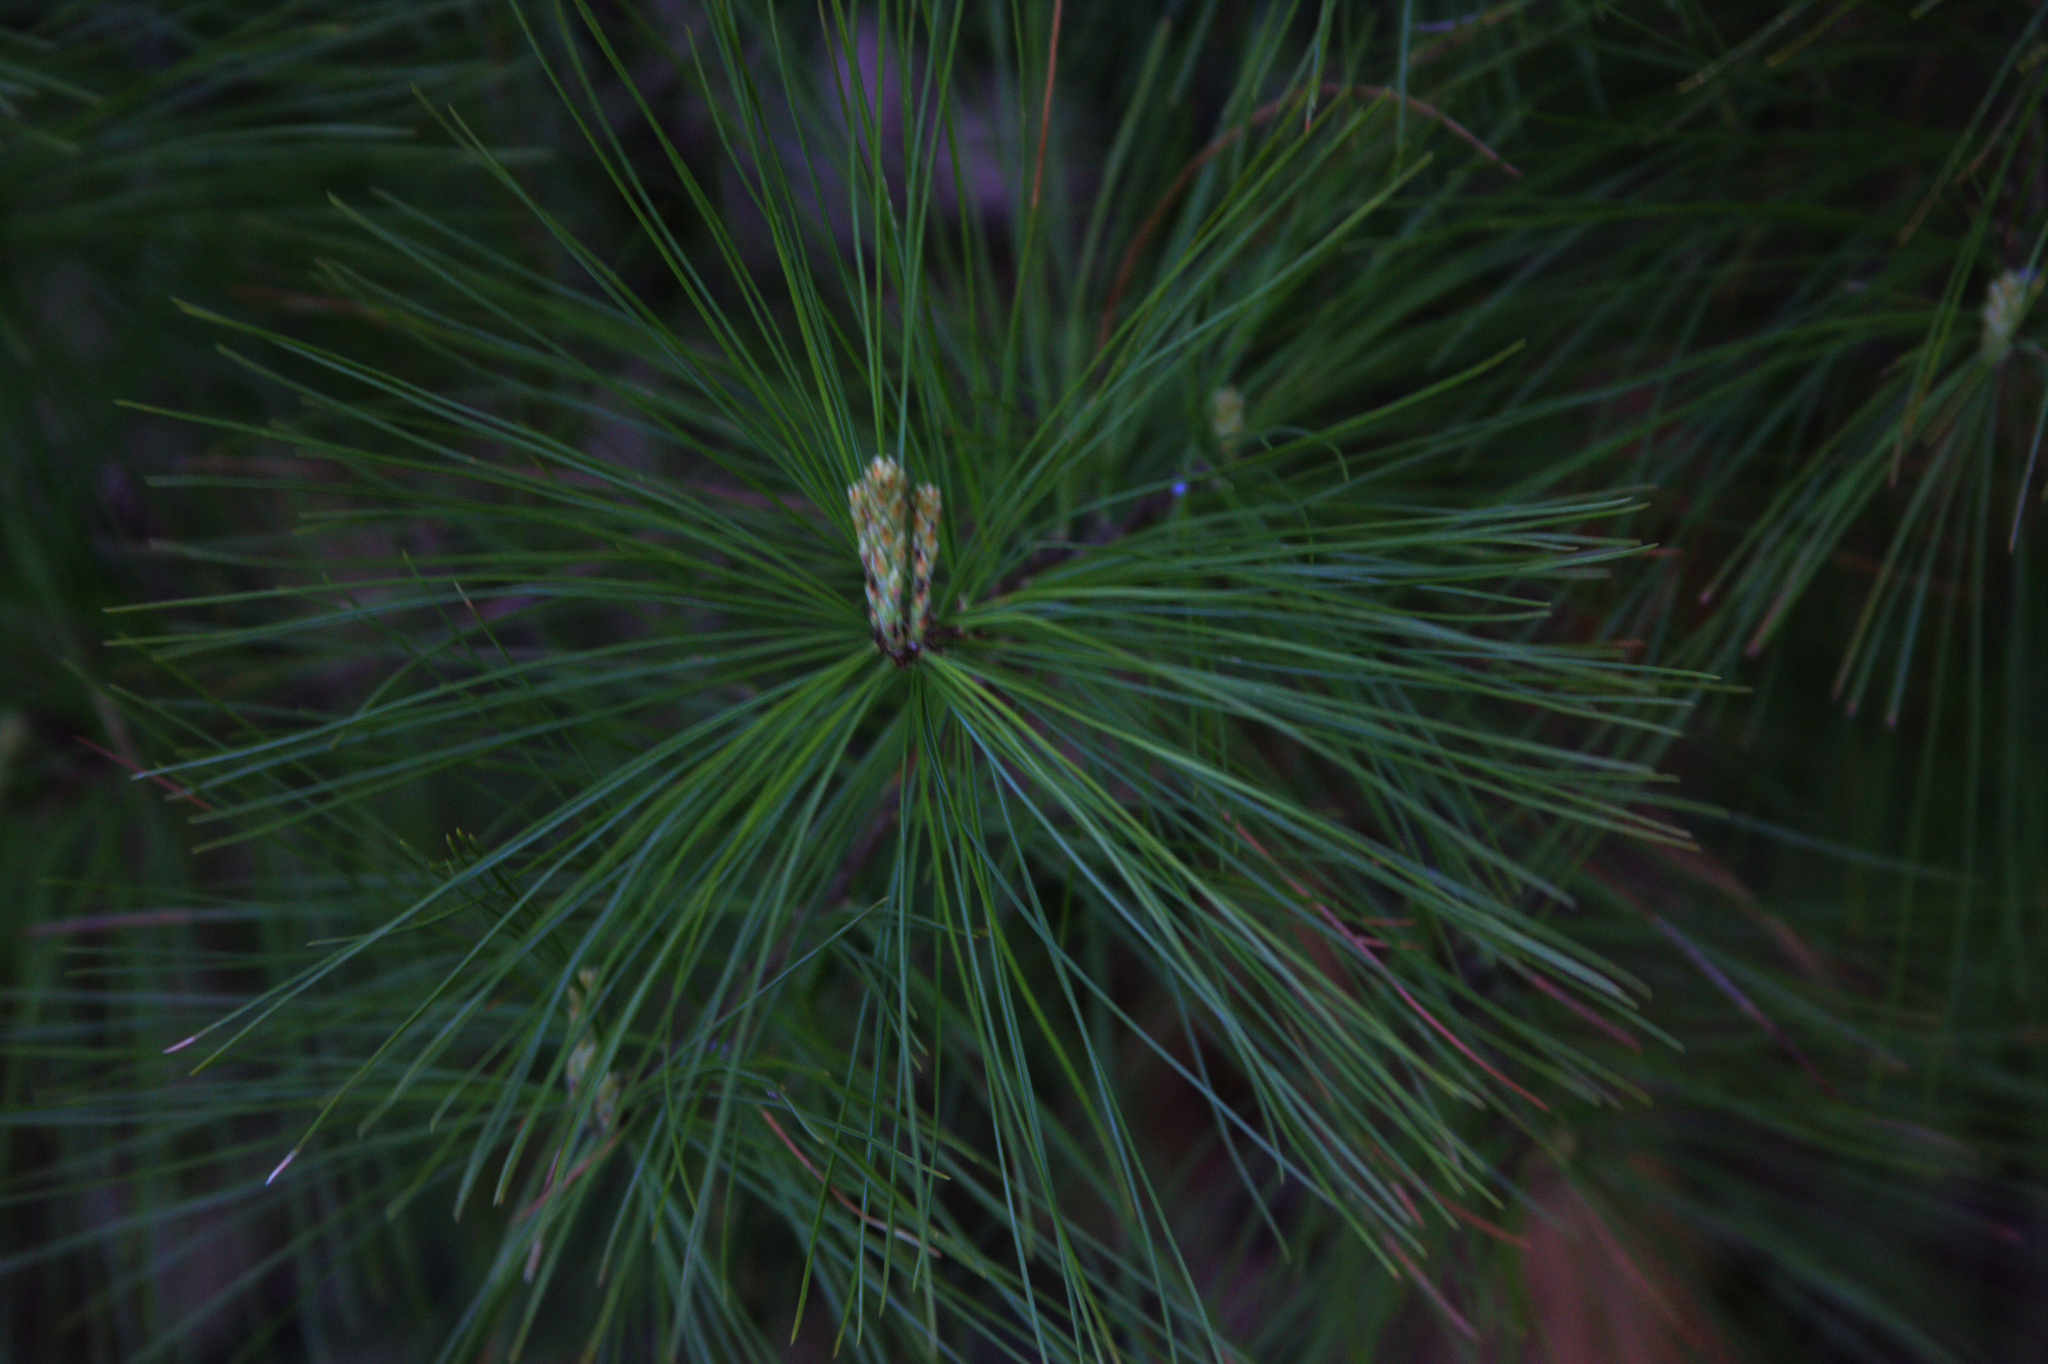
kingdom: Plantae
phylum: Tracheophyta
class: Pinopsida
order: Pinales
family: Pinaceae
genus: Pinus
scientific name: Pinus strobus
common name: Weymouth pine
